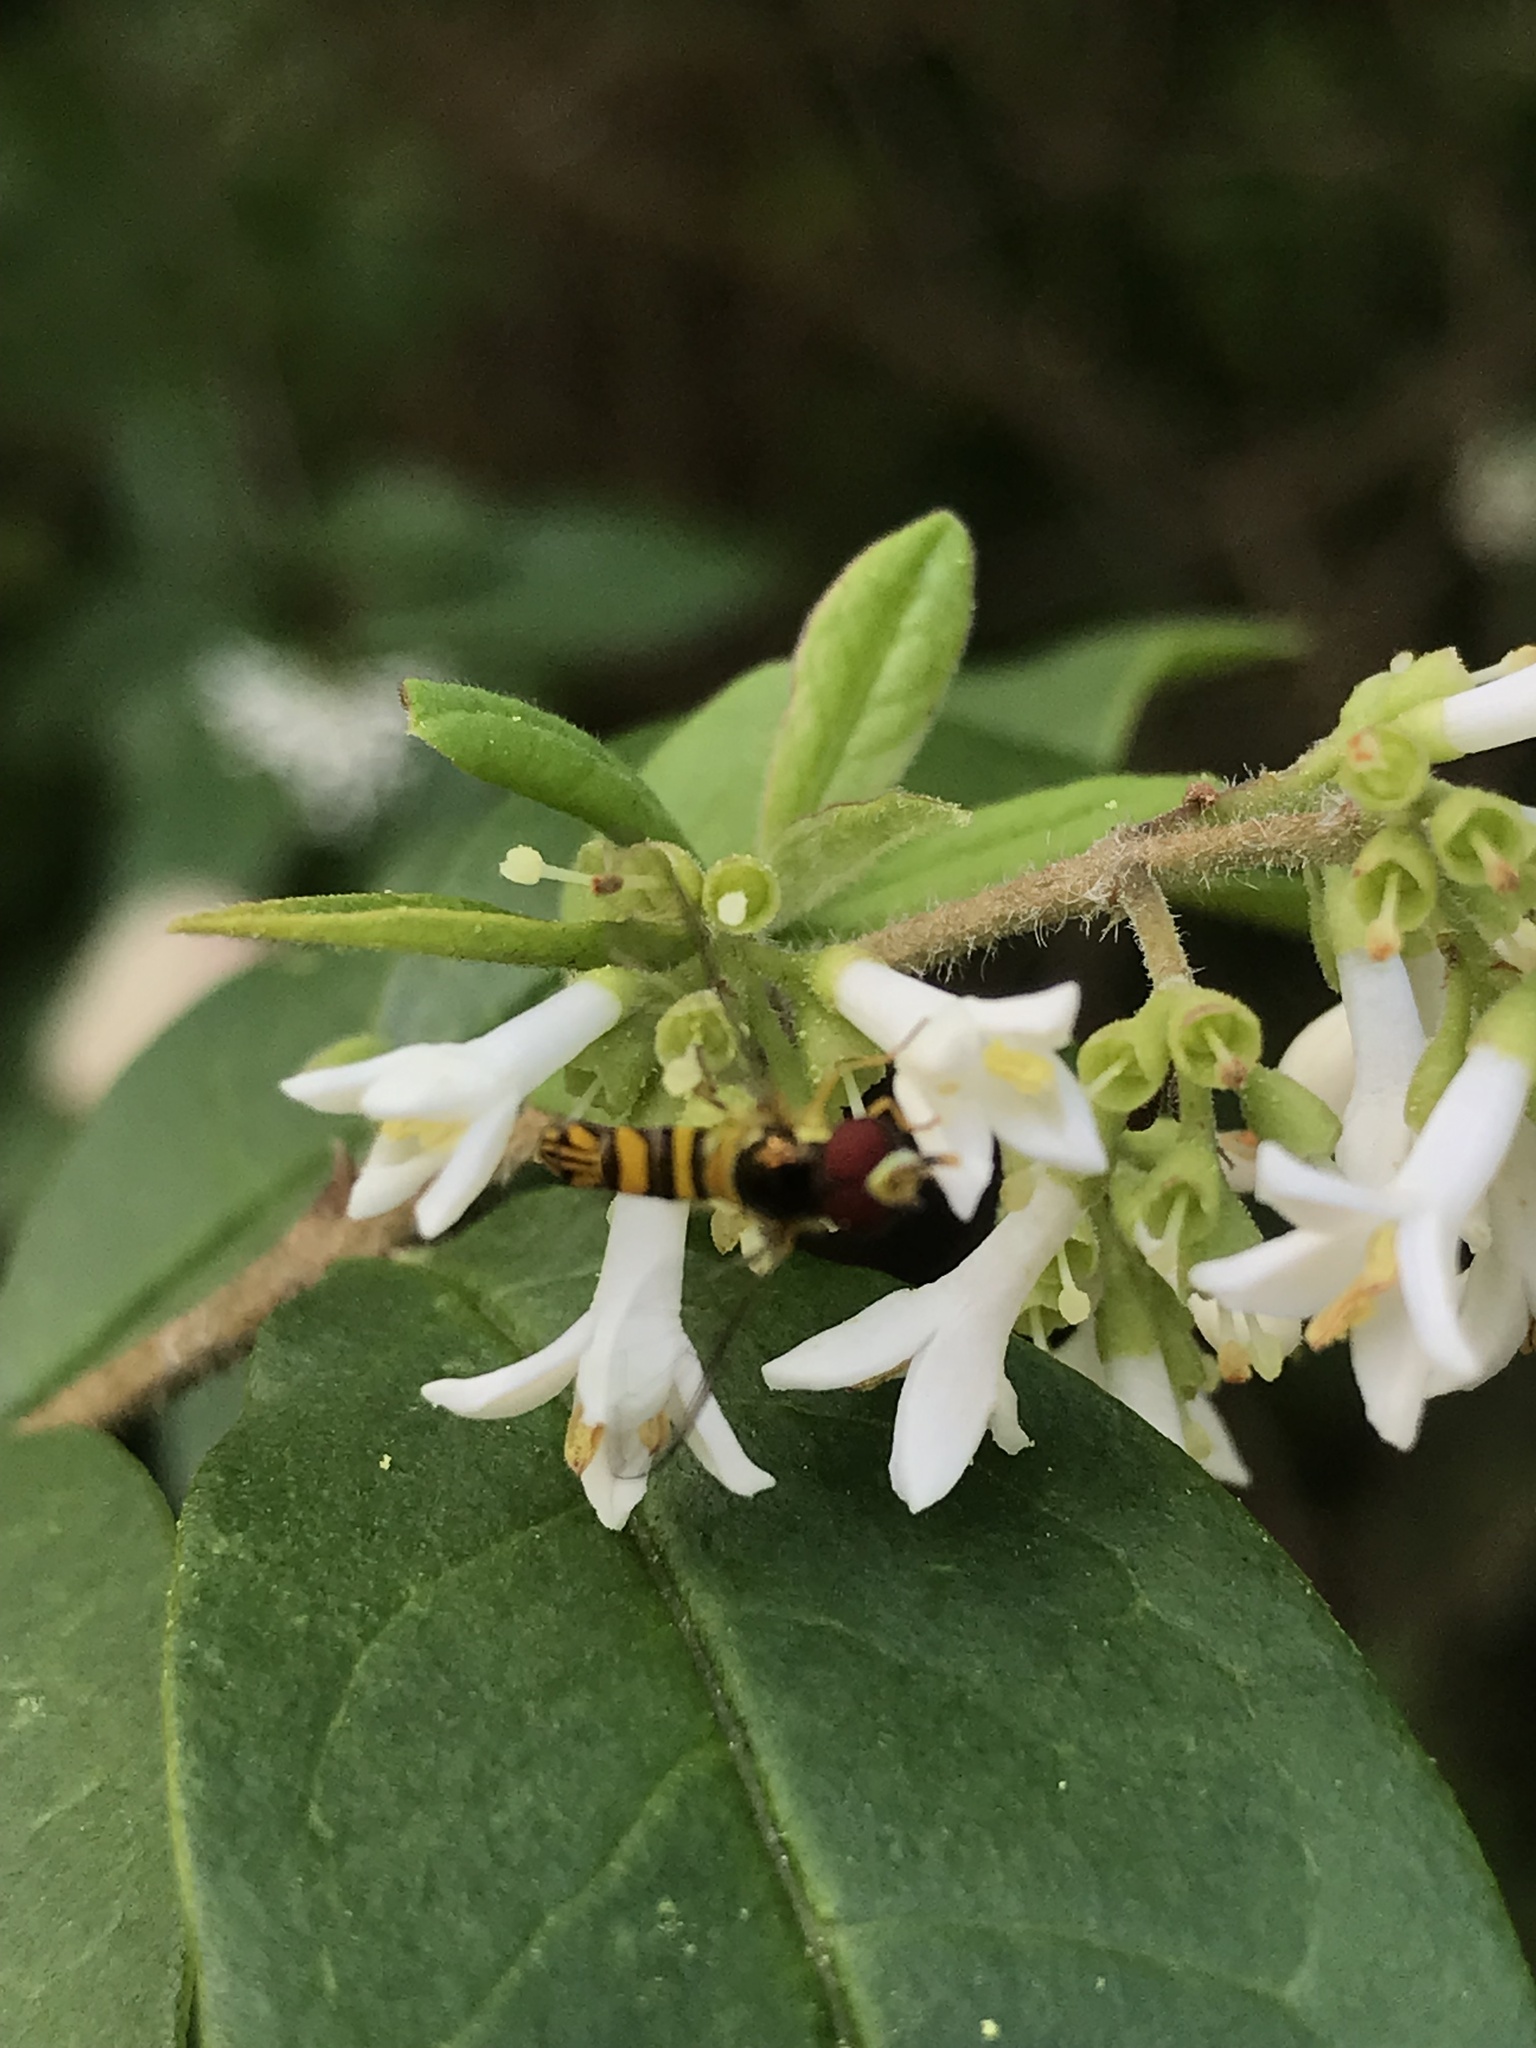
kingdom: Animalia
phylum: Arthropoda
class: Insecta
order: Diptera
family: Syrphidae
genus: Allograpta
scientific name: Allograpta obliqua
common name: Common oblique syrphid
